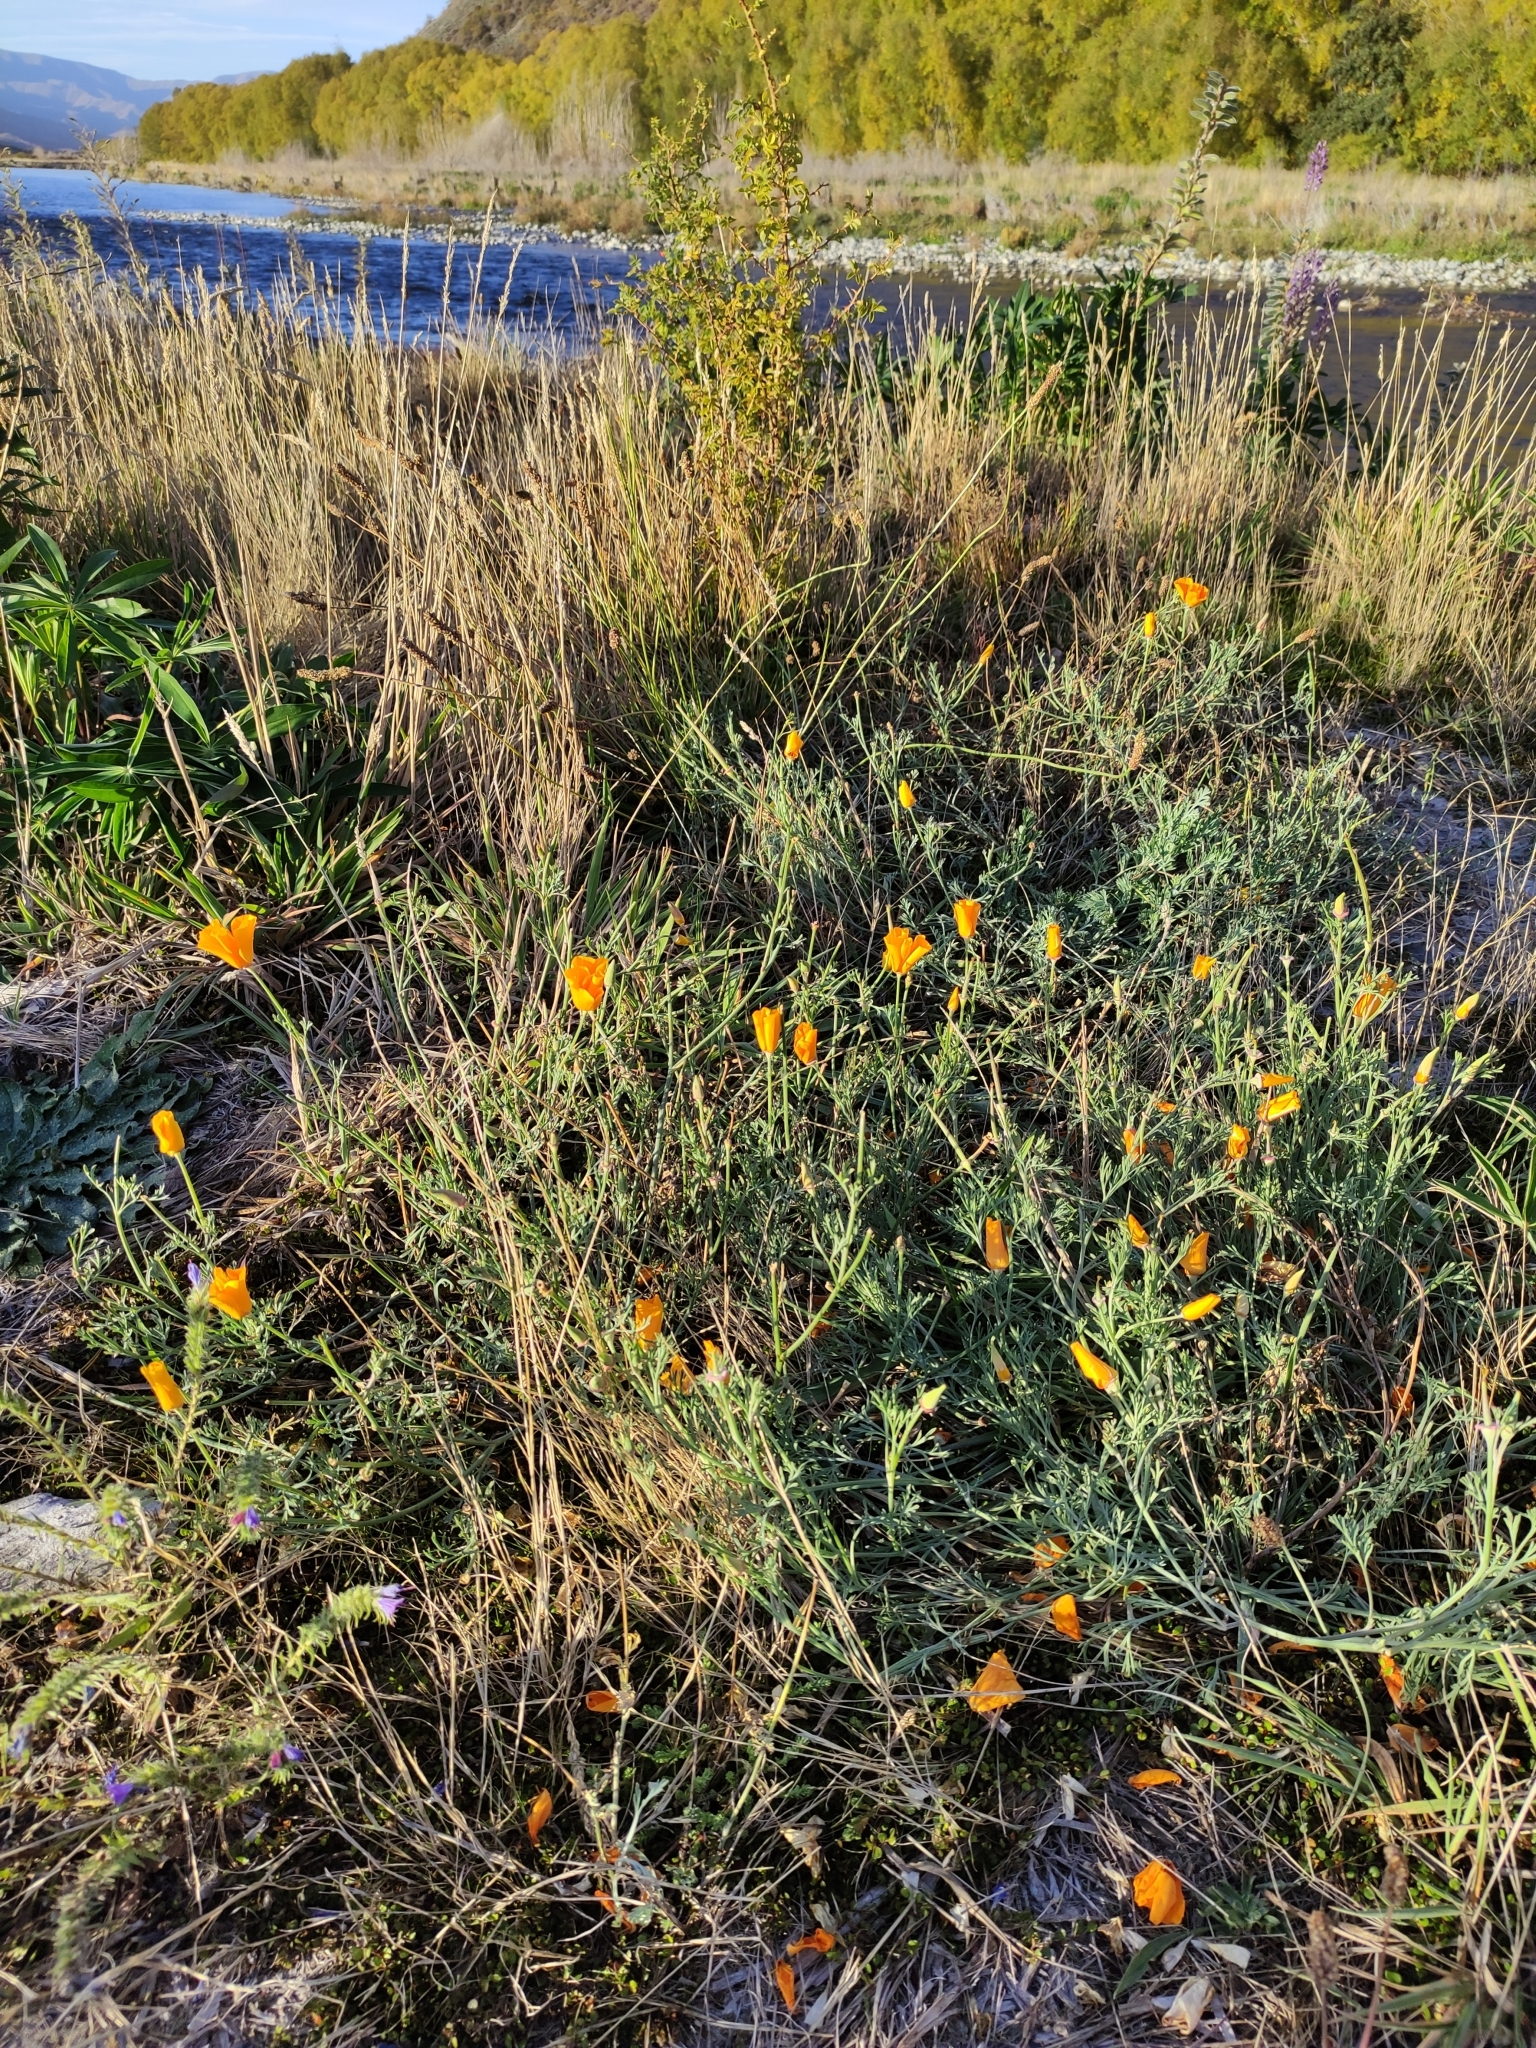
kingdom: Plantae
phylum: Tracheophyta
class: Magnoliopsida
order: Ranunculales
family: Papaveraceae
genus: Eschscholzia
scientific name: Eschscholzia californica
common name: California poppy
